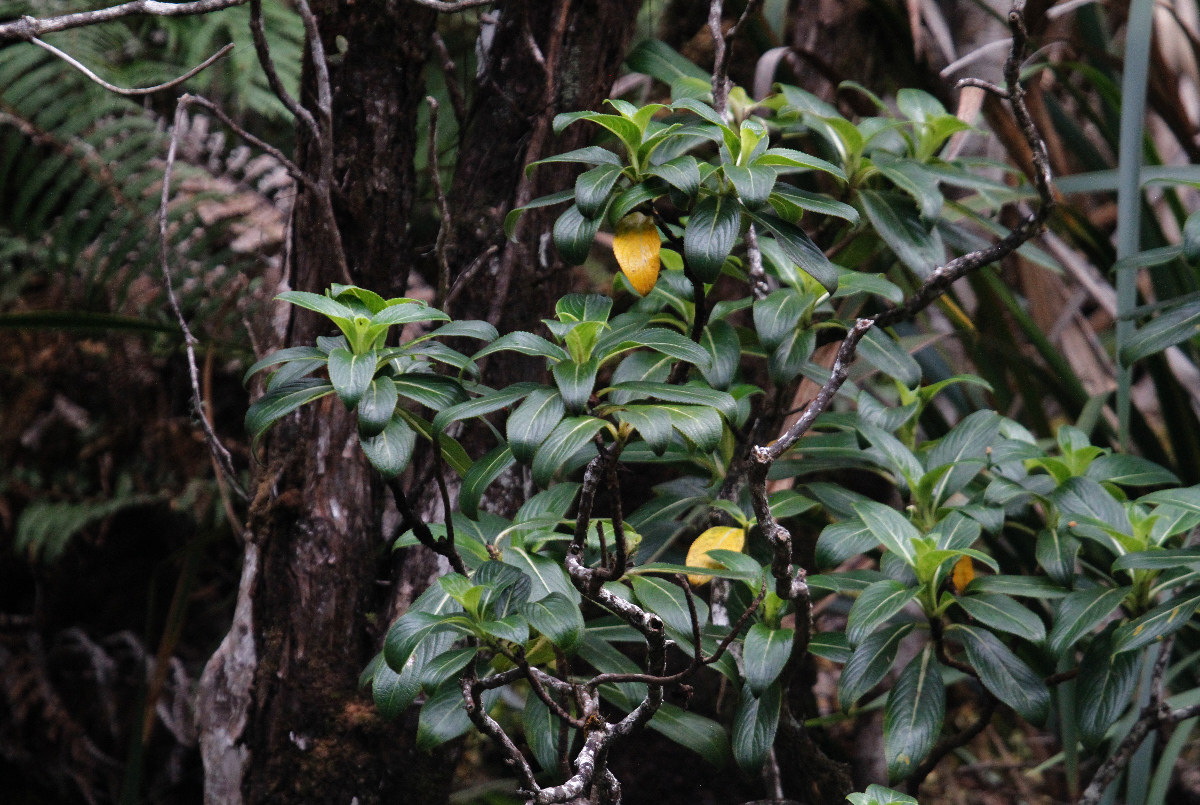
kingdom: Plantae
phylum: Tracheophyta
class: Magnoliopsida
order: Cornales
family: Hydrangeaceae
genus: Hydrangea
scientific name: Hydrangea arguta
